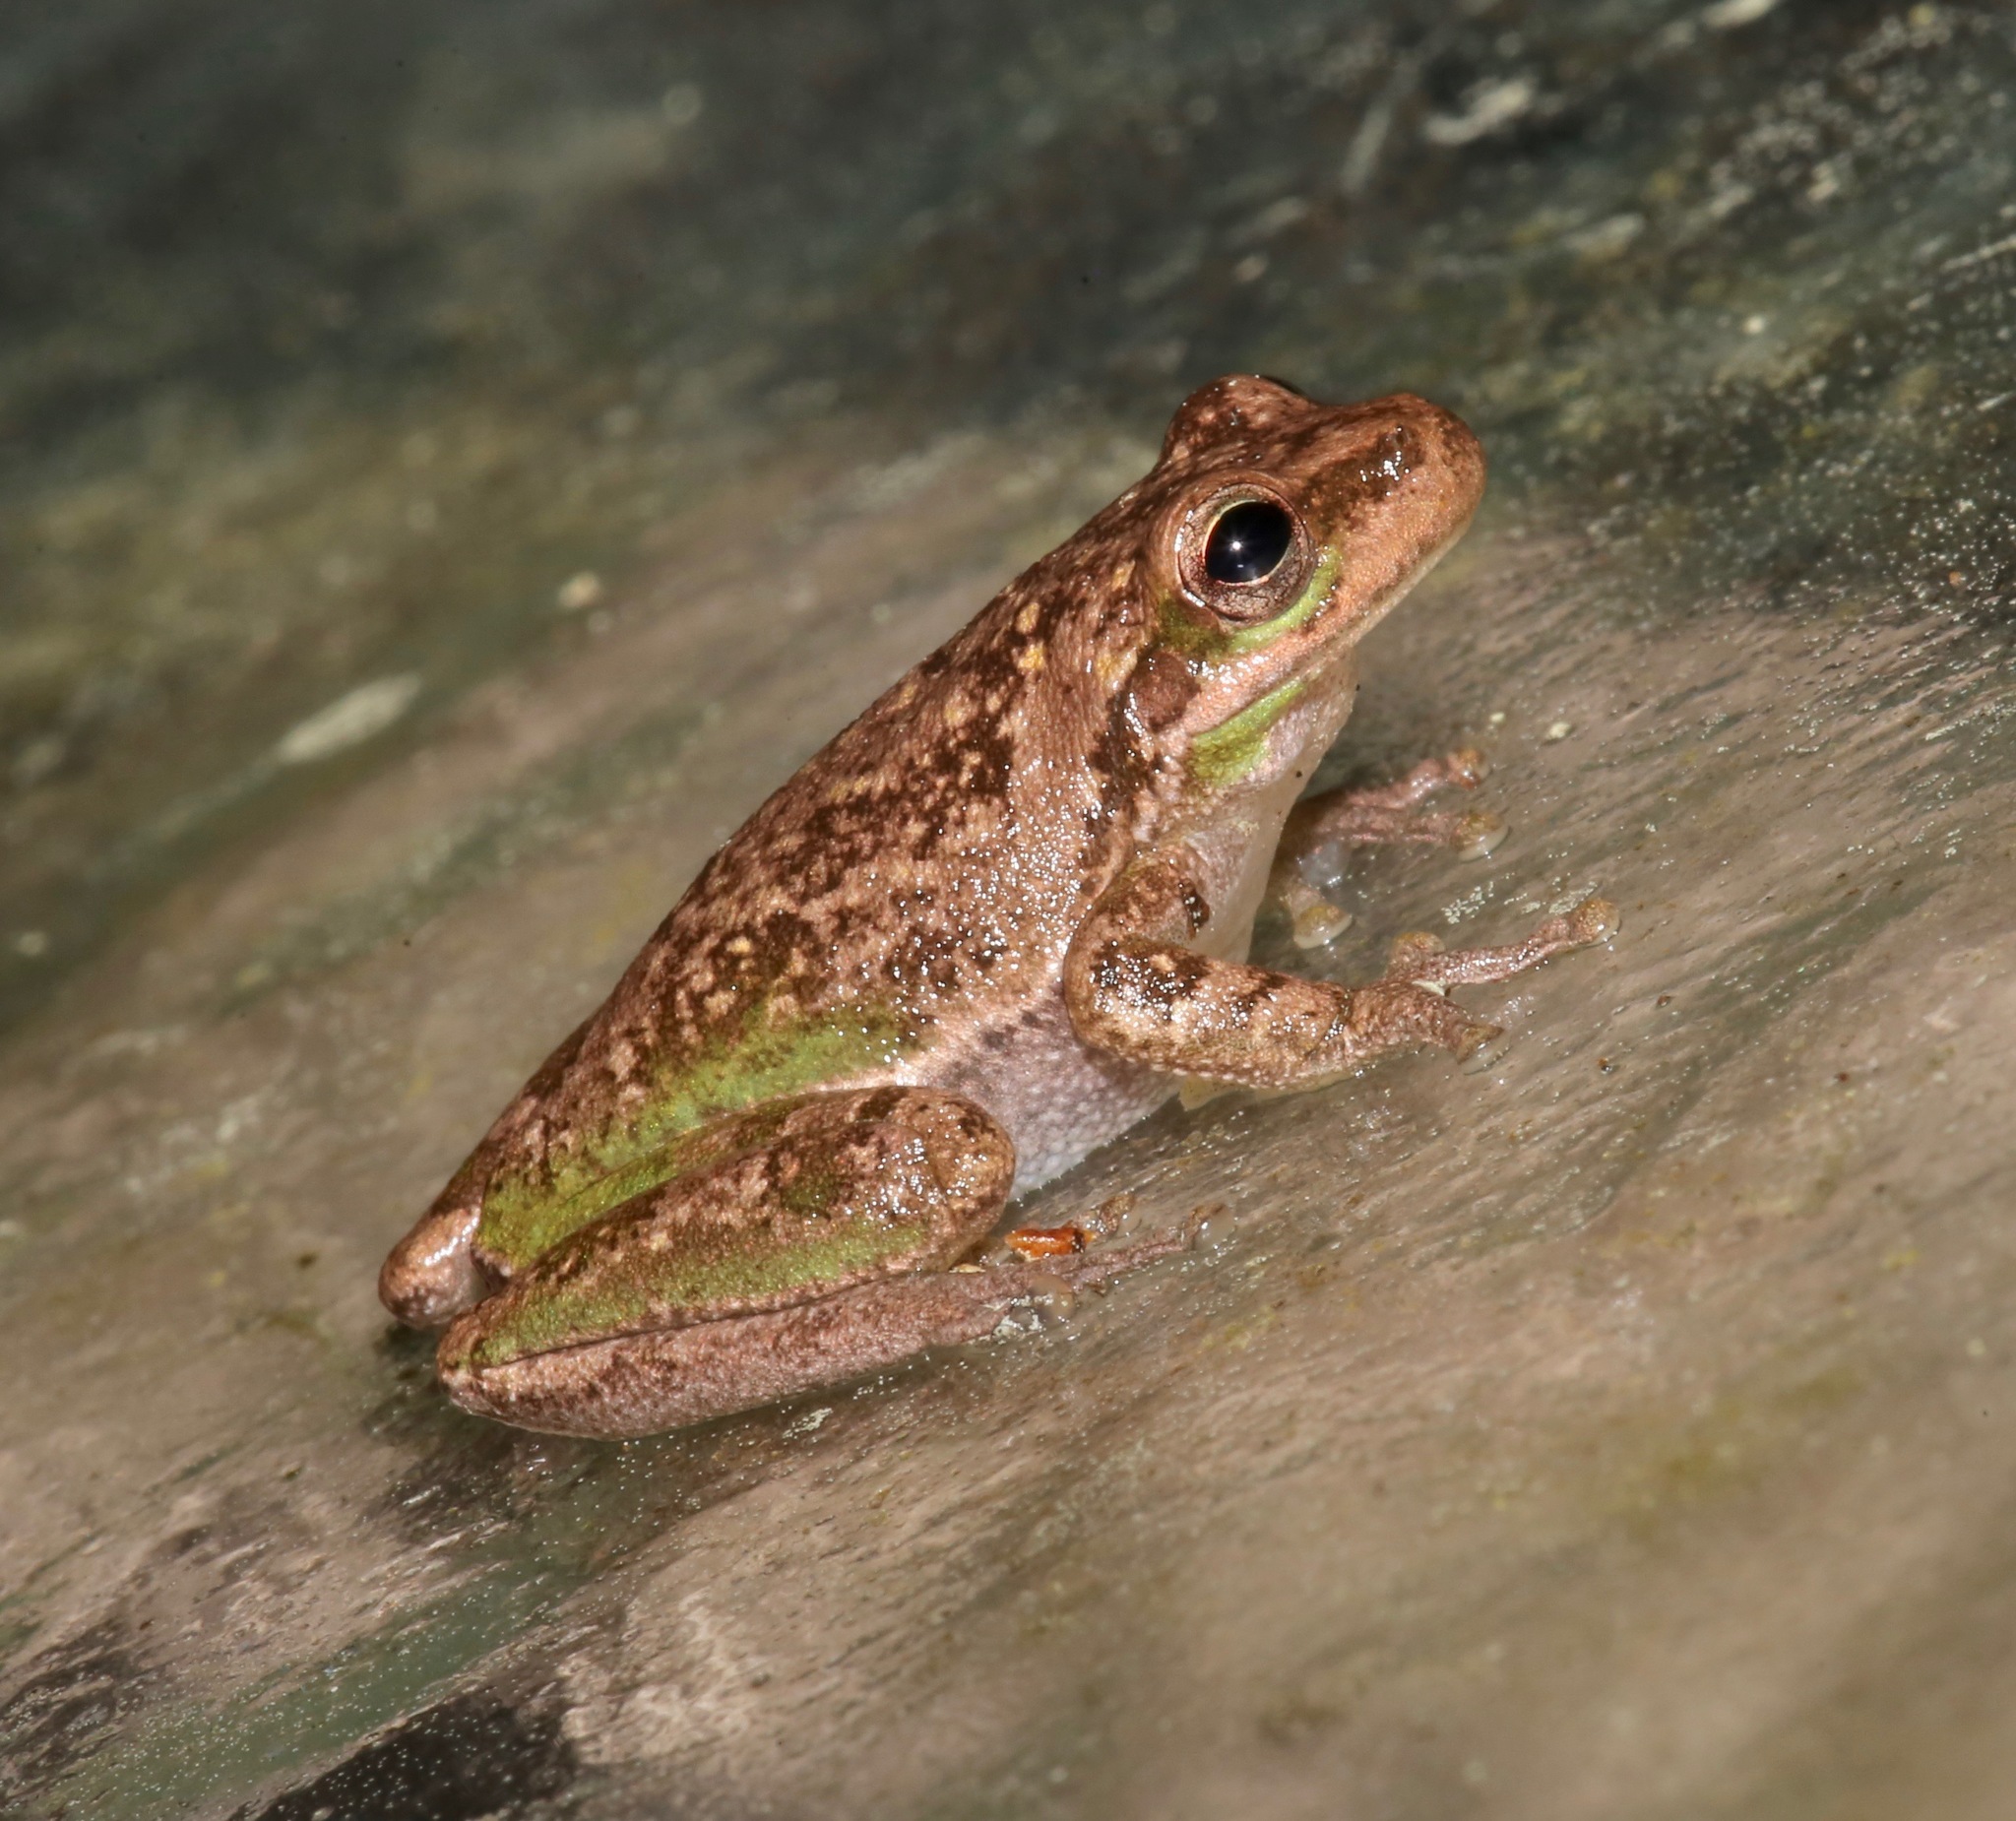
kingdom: Animalia
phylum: Chordata
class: Amphibia
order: Anura
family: Hylidae
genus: Dryophytes
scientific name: Dryophytes squirellus
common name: Squirrel treefrog
